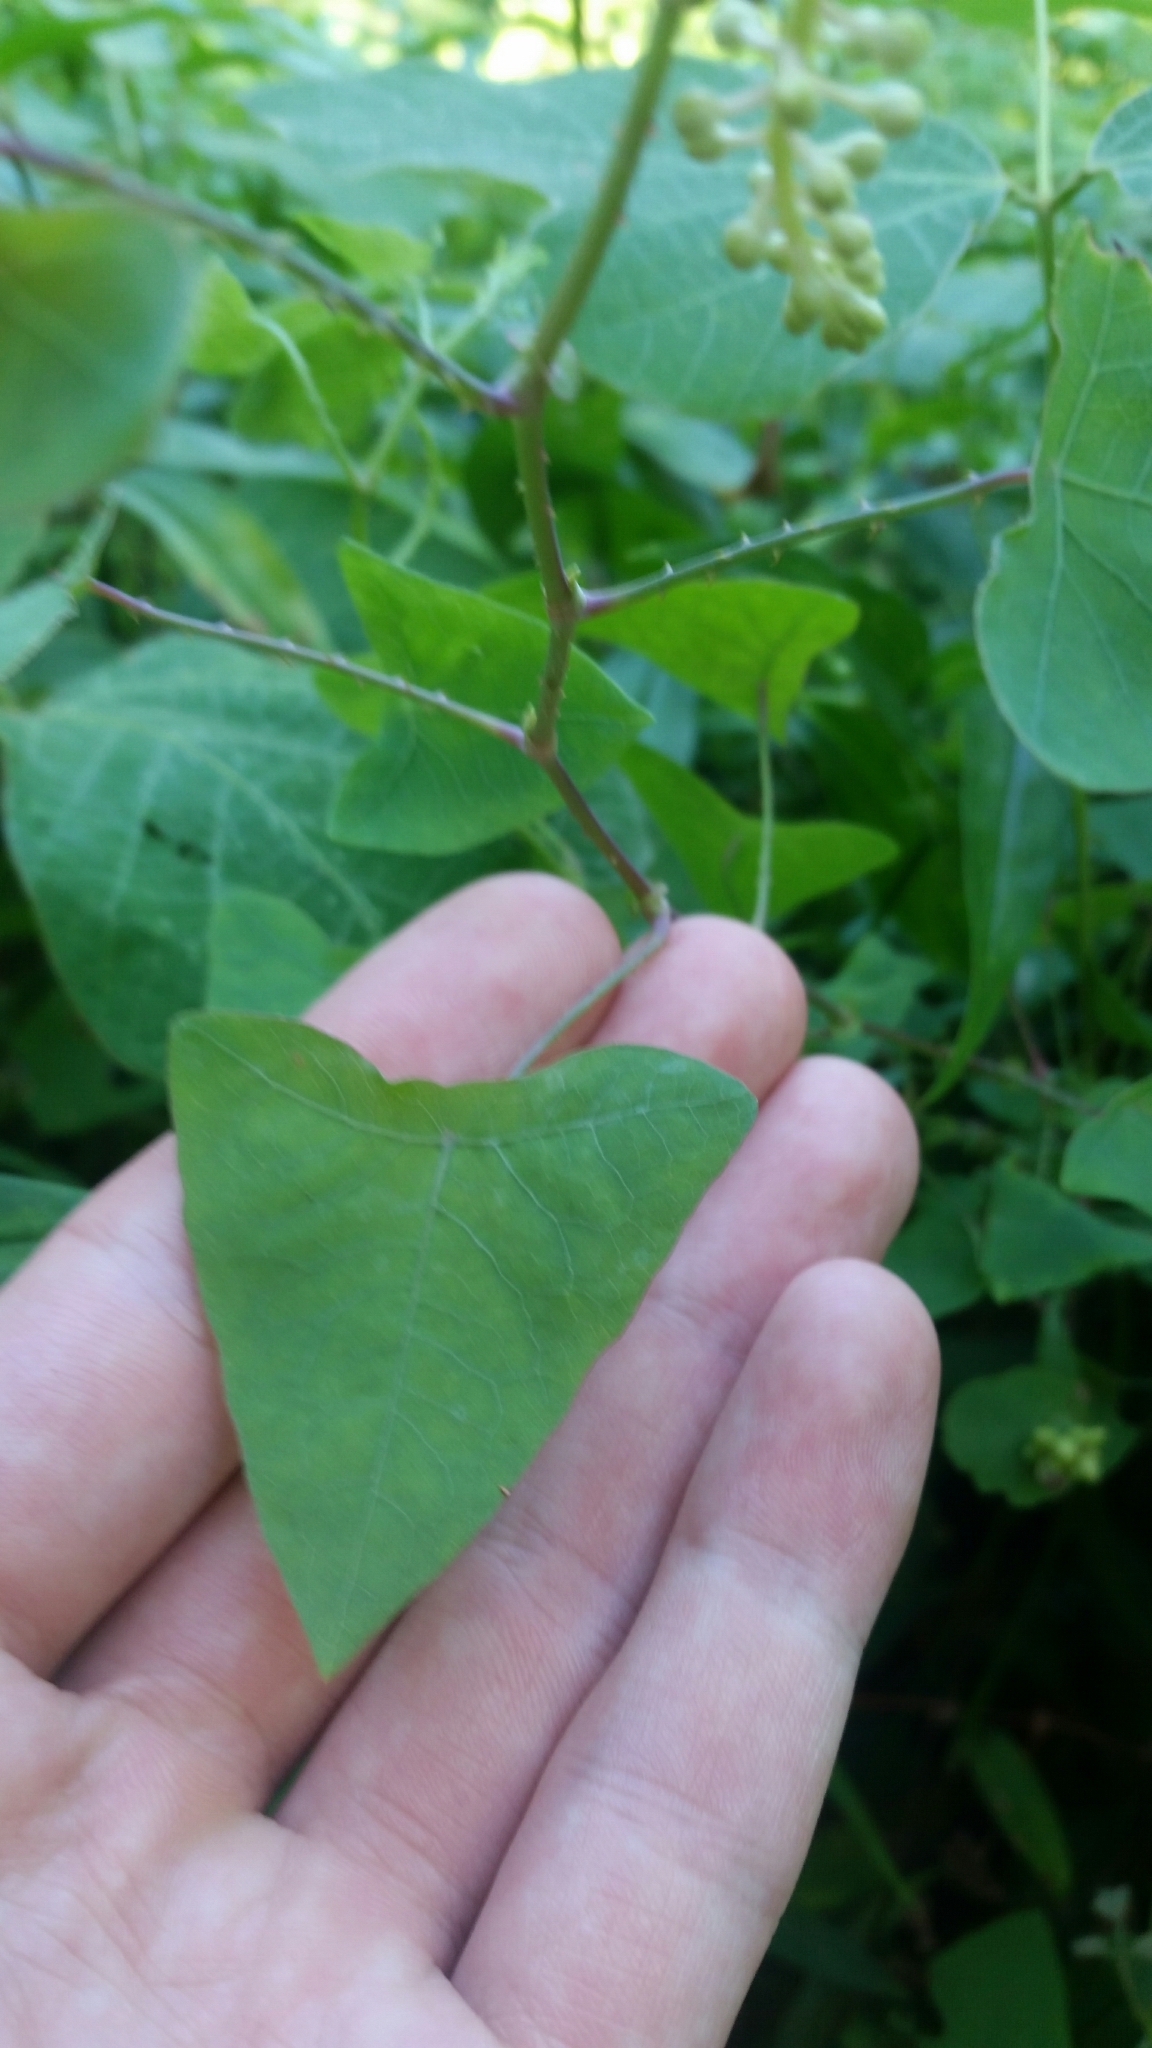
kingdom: Plantae
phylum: Tracheophyta
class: Magnoliopsida
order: Caryophyllales
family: Polygonaceae
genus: Persicaria
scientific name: Persicaria perfoliata
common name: Asiatic tearthumb
